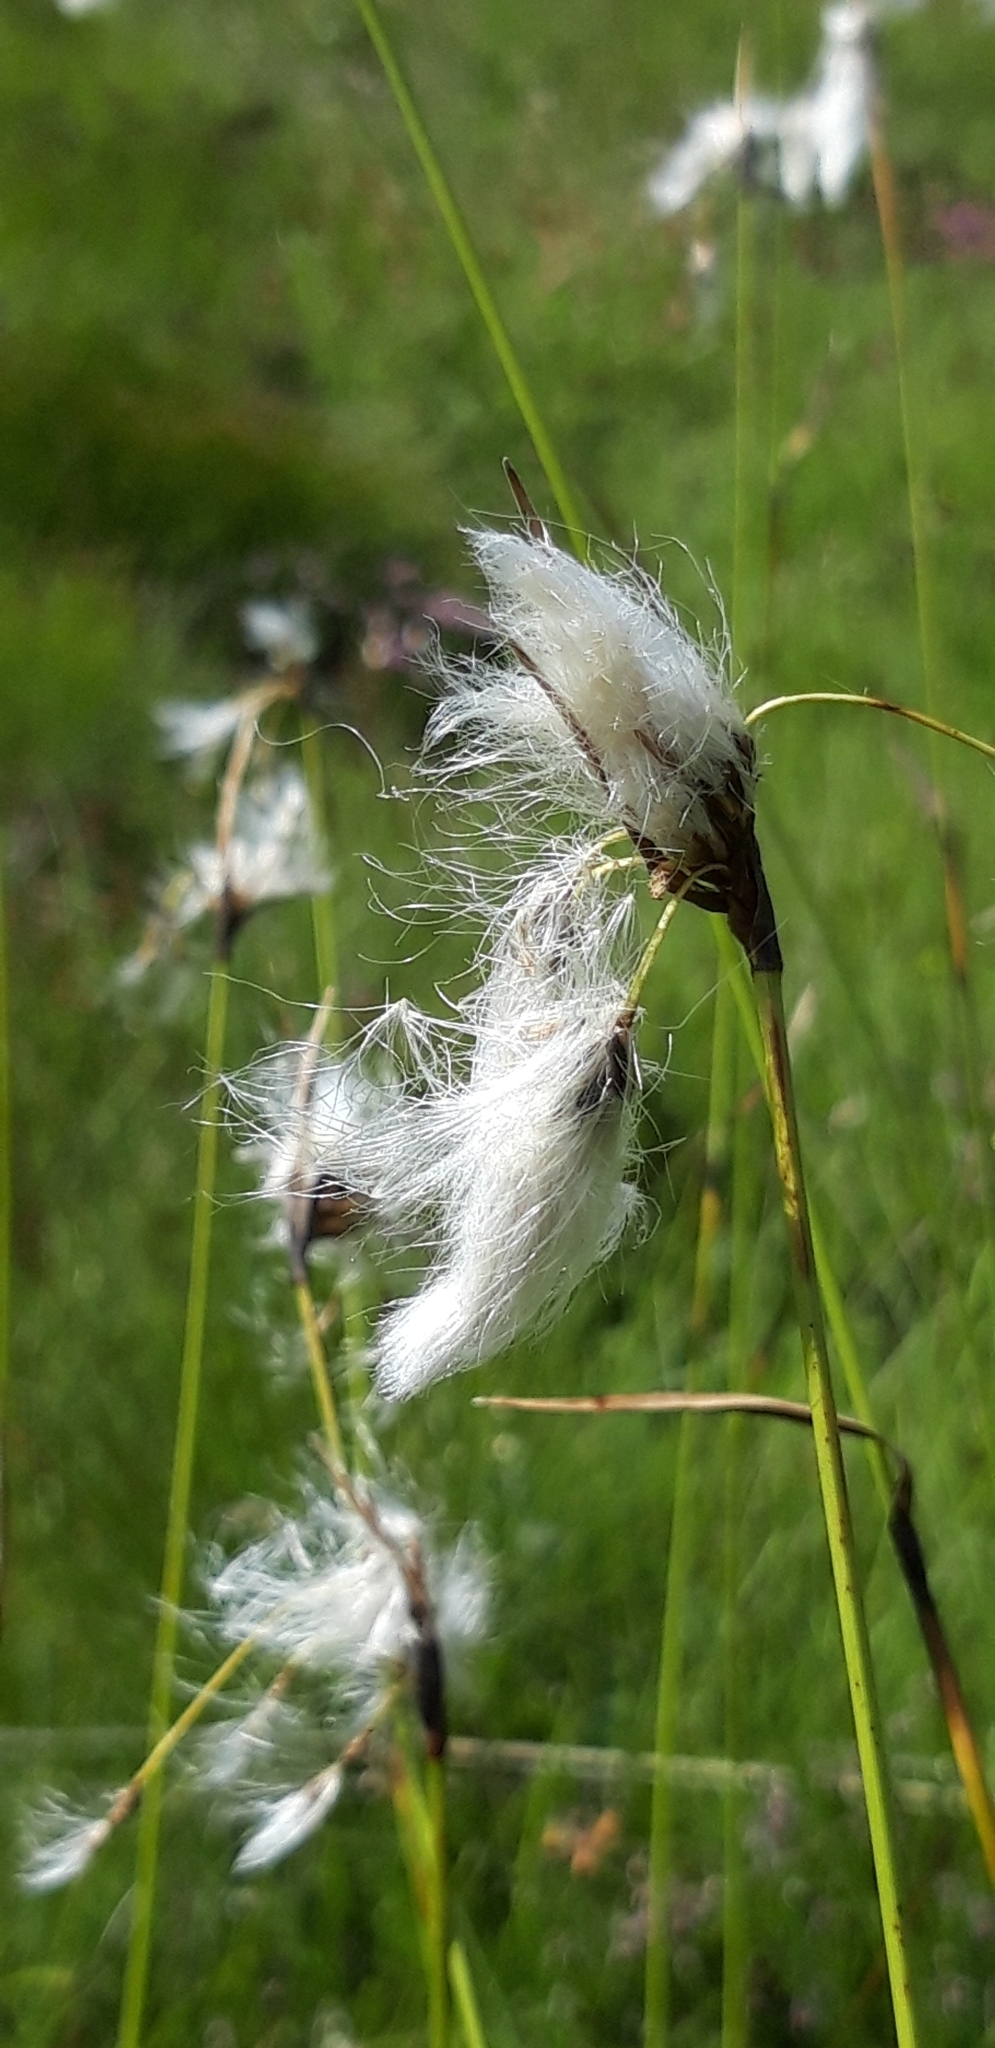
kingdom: Plantae
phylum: Tracheophyta
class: Liliopsida
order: Poales
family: Cyperaceae
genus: Eriophorum
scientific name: Eriophorum vaginatum
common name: Hare's-tail cottongrass
